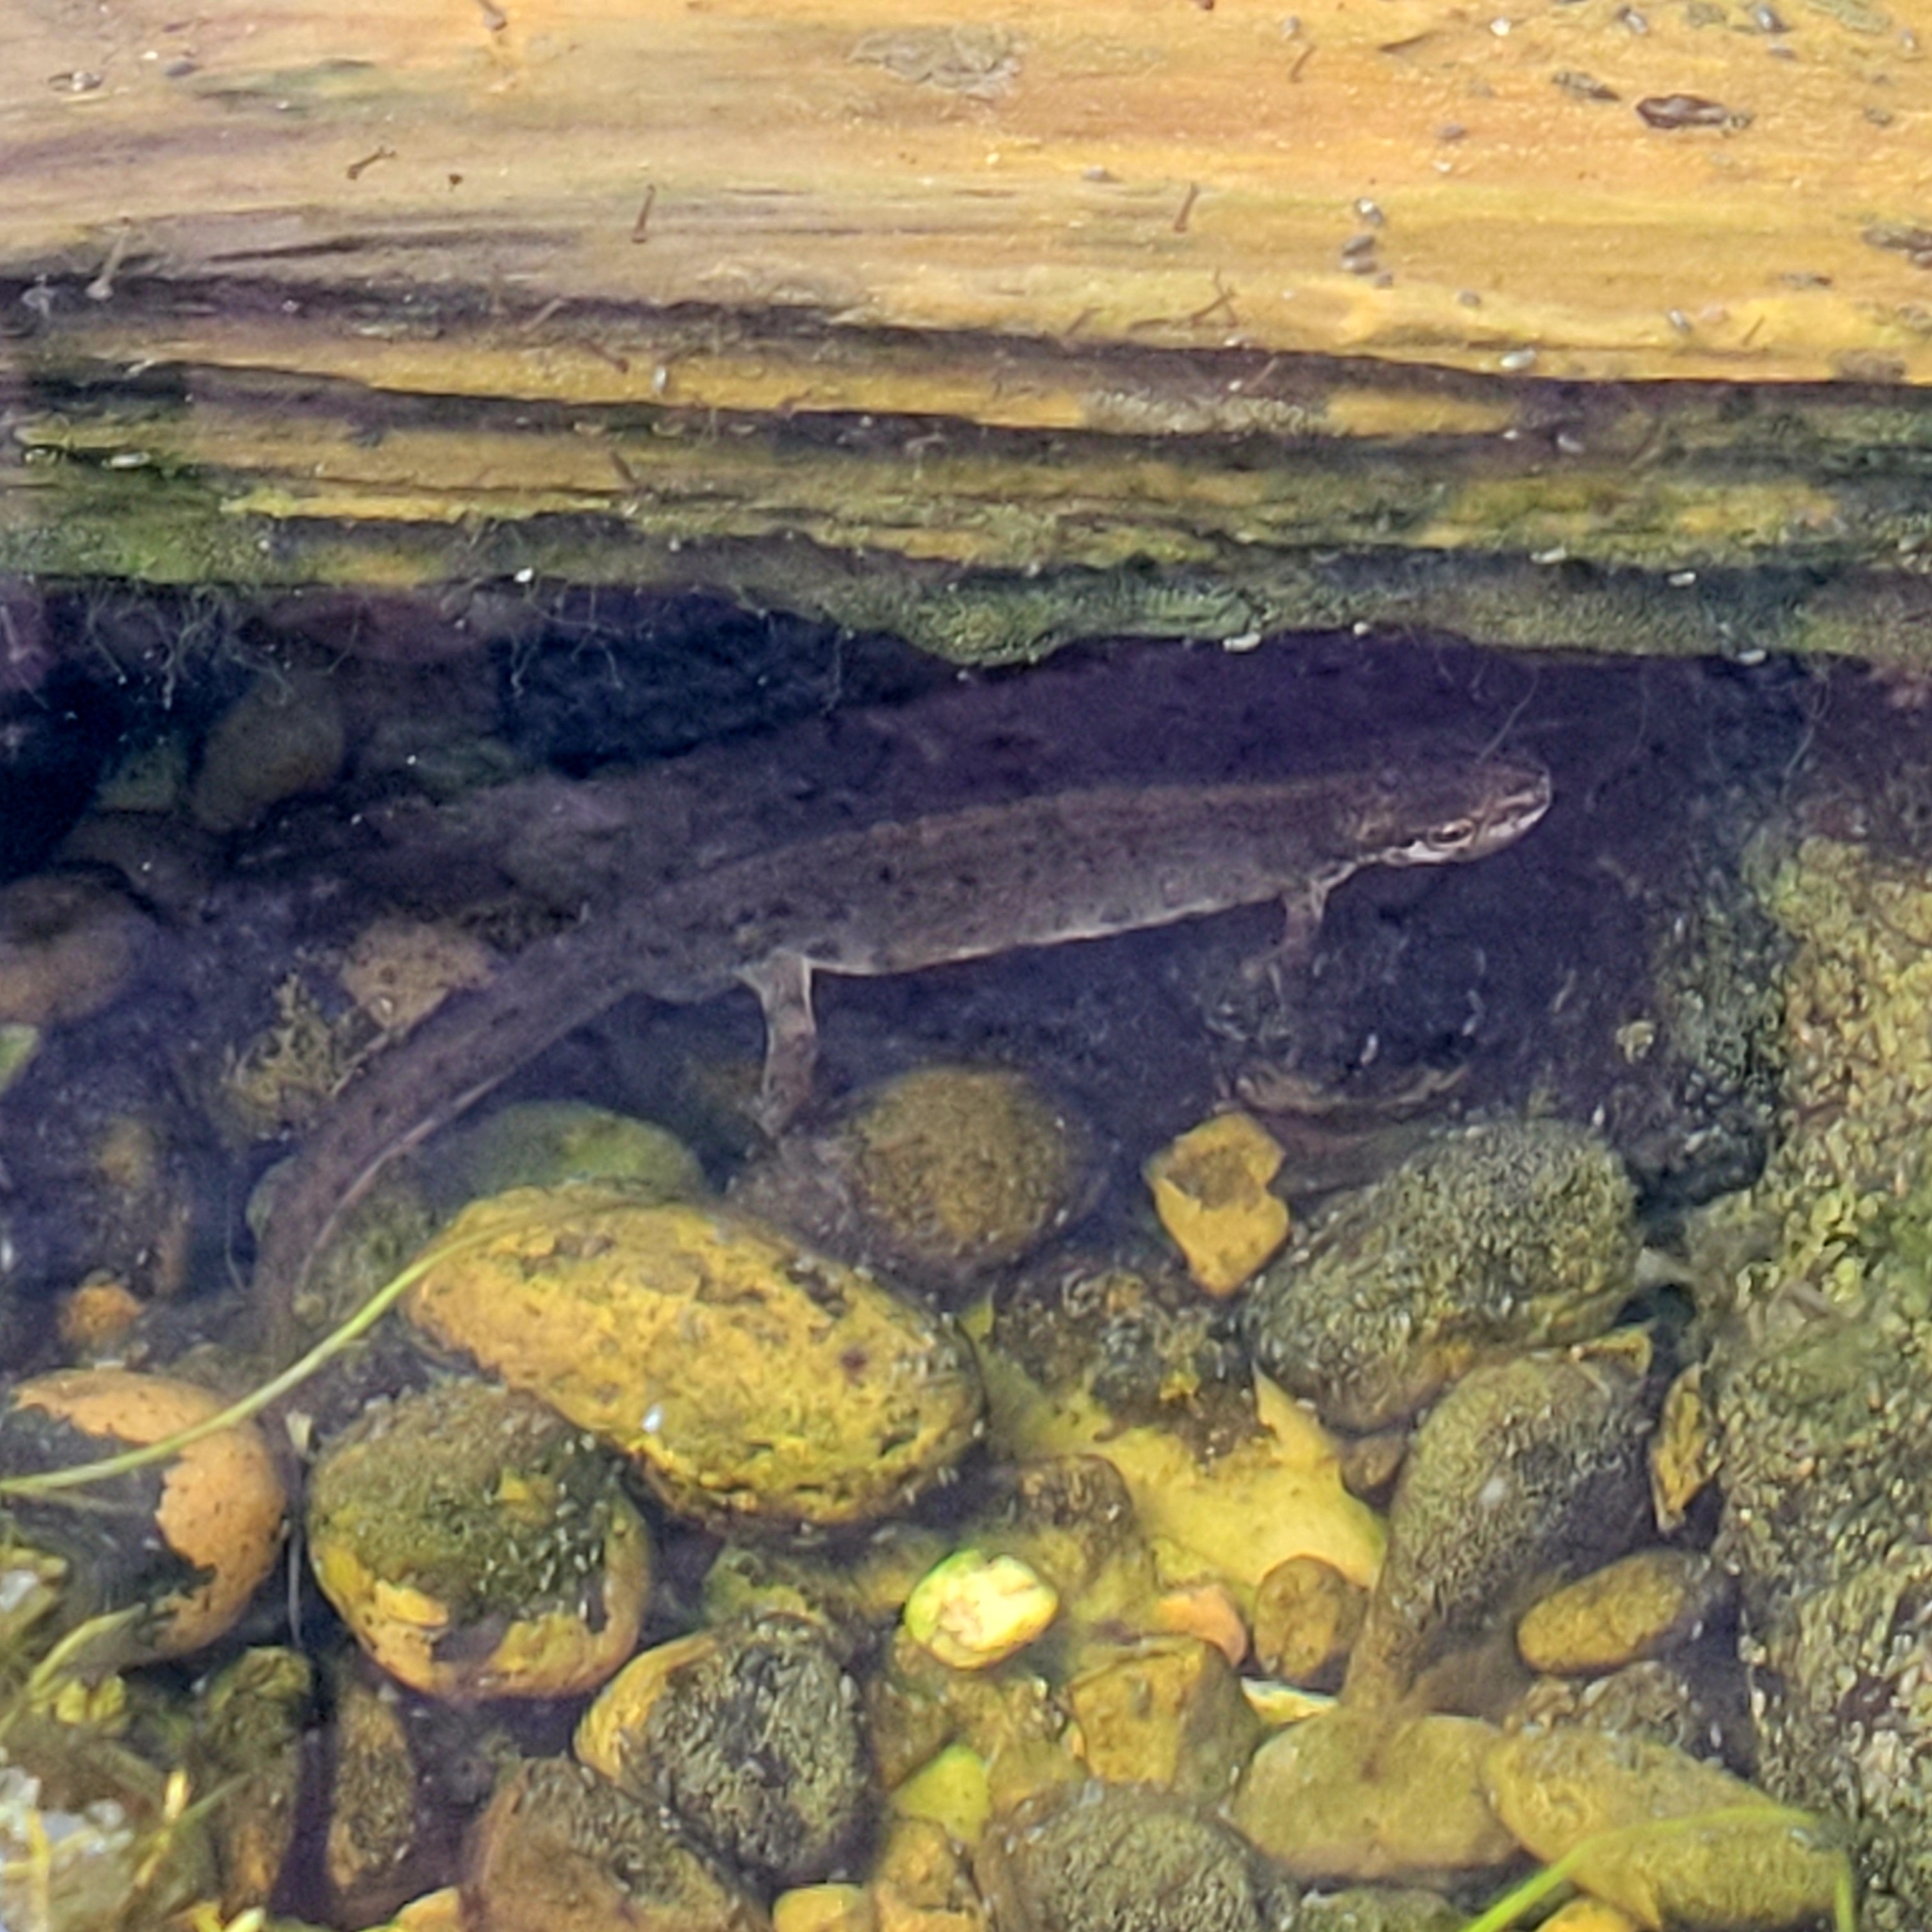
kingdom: Animalia
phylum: Chordata
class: Amphibia
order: Caudata
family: Salamandridae
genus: Lissotriton
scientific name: Lissotriton vulgaris
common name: Smooth newt
